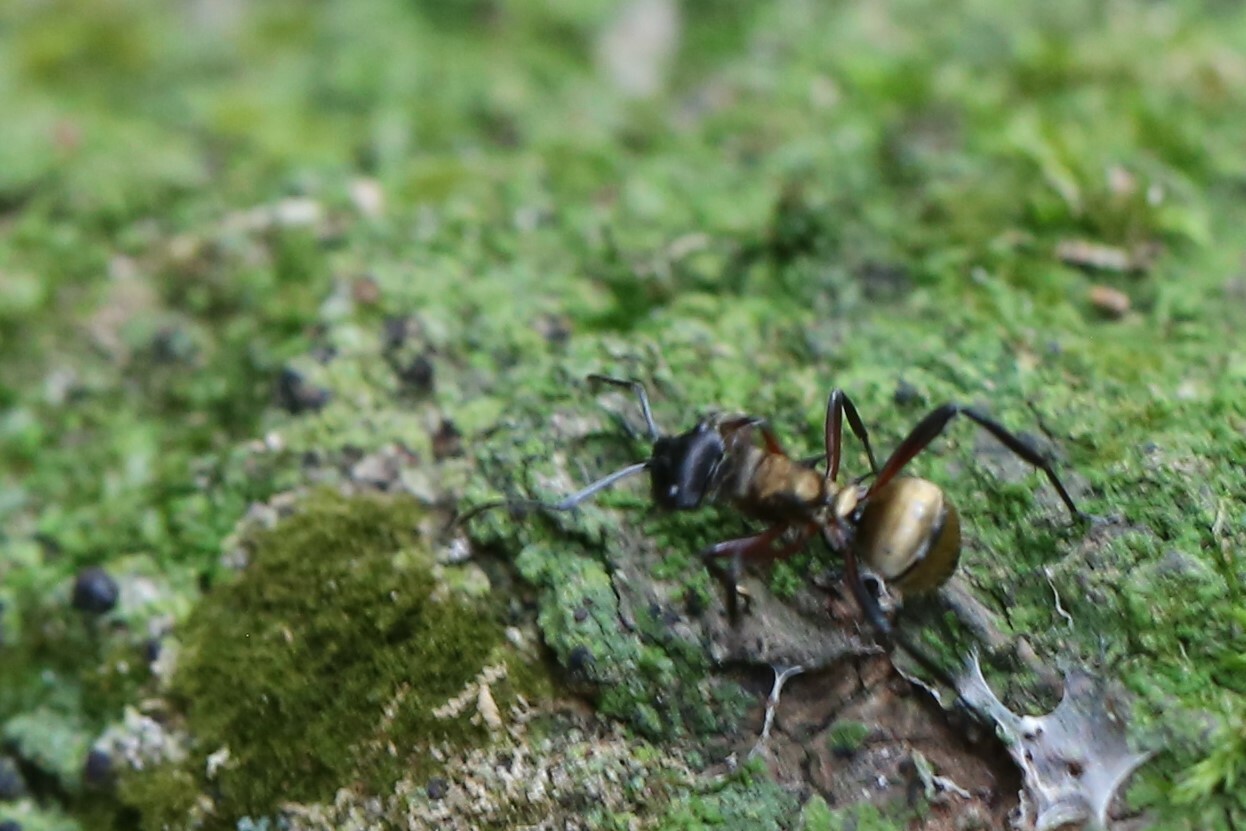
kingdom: Animalia
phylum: Arthropoda
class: Insecta
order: Hymenoptera
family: Formicidae
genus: Polyrhachis
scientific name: Polyrhachis rufifemur
